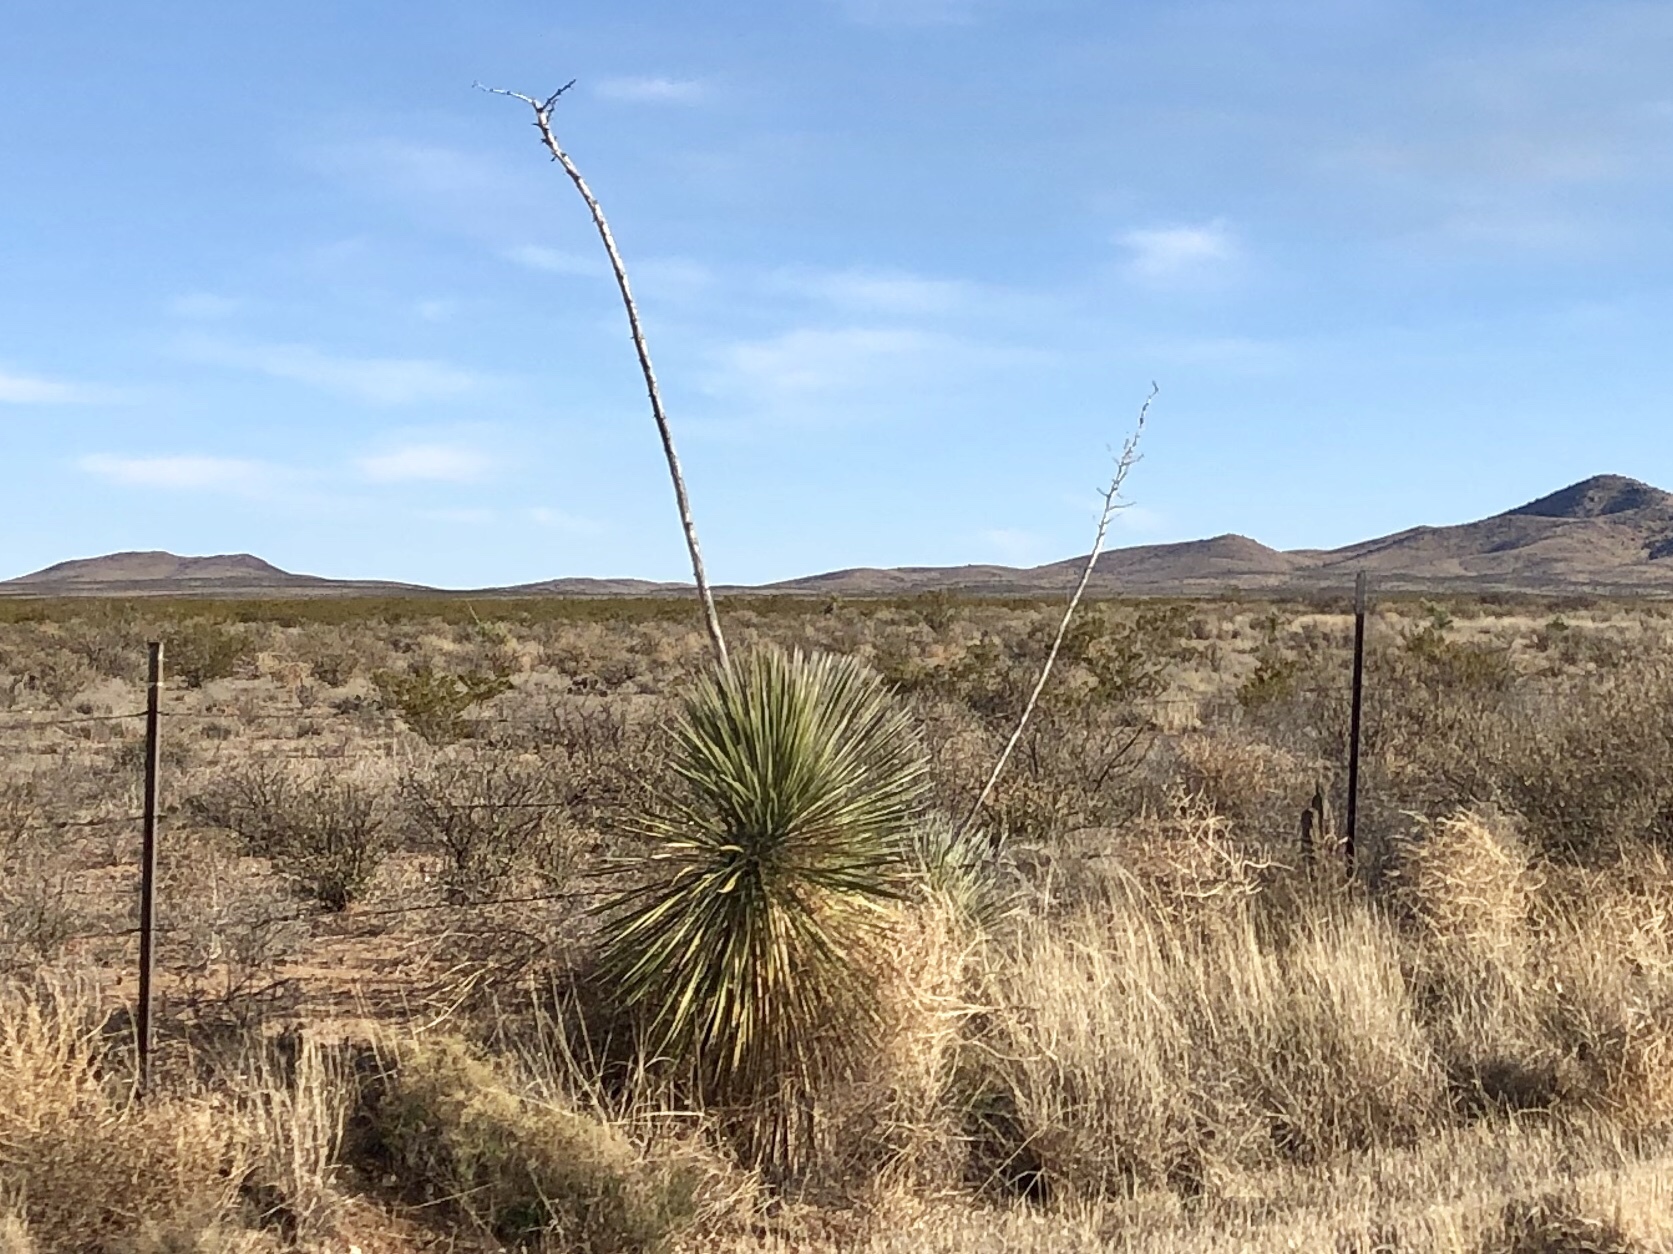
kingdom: Plantae
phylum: Tracheophyta
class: Liliopsida
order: Asparagales
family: Asparagaceae
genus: Yucca
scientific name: Yucca elata
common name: Palmella
